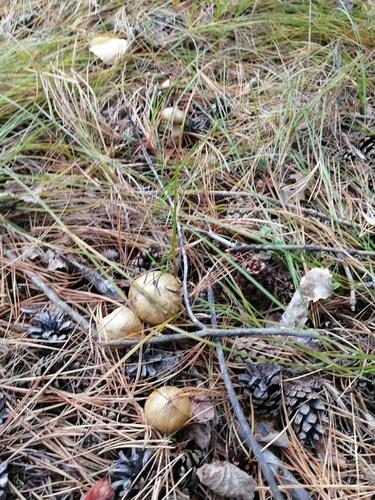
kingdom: Fungi
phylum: Basidiomycota
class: Agaricomycetes
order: Boletales
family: Suillaceae
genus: Suillus
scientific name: Suillus americanus
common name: Chicken fat mushroom
